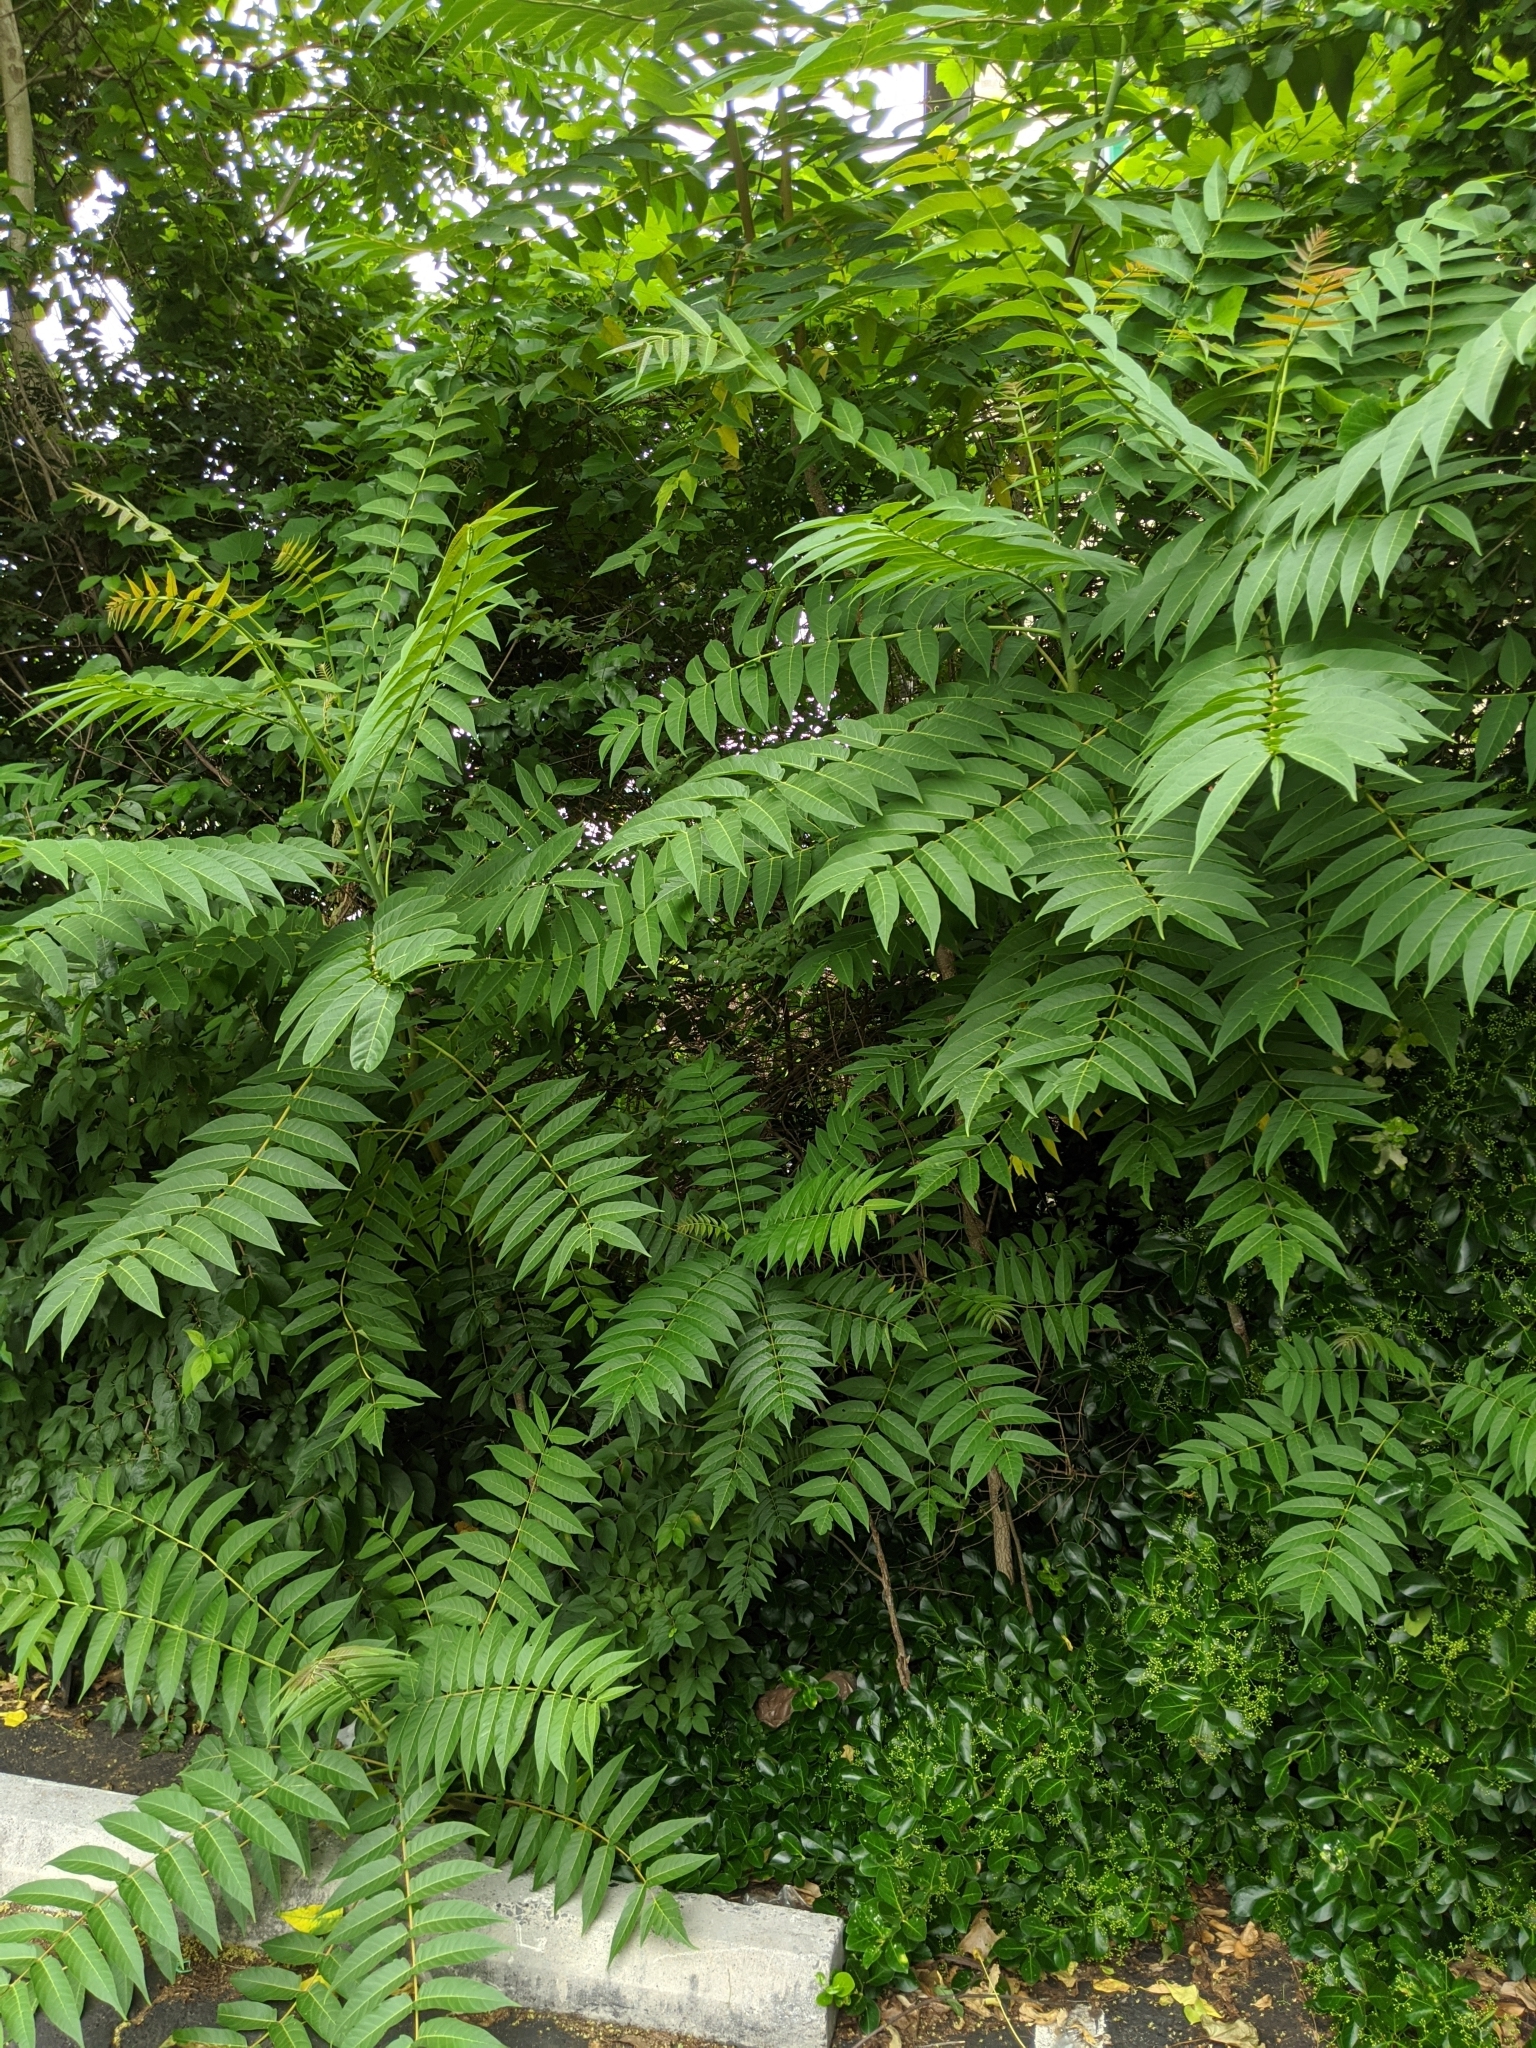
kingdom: Plantae
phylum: Tracheophyta
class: Magnoliopsida
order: Sapindales
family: Simaroubaceae
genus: Ailanthus
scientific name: Ailanthus altissima
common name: Tree-of-heaven
